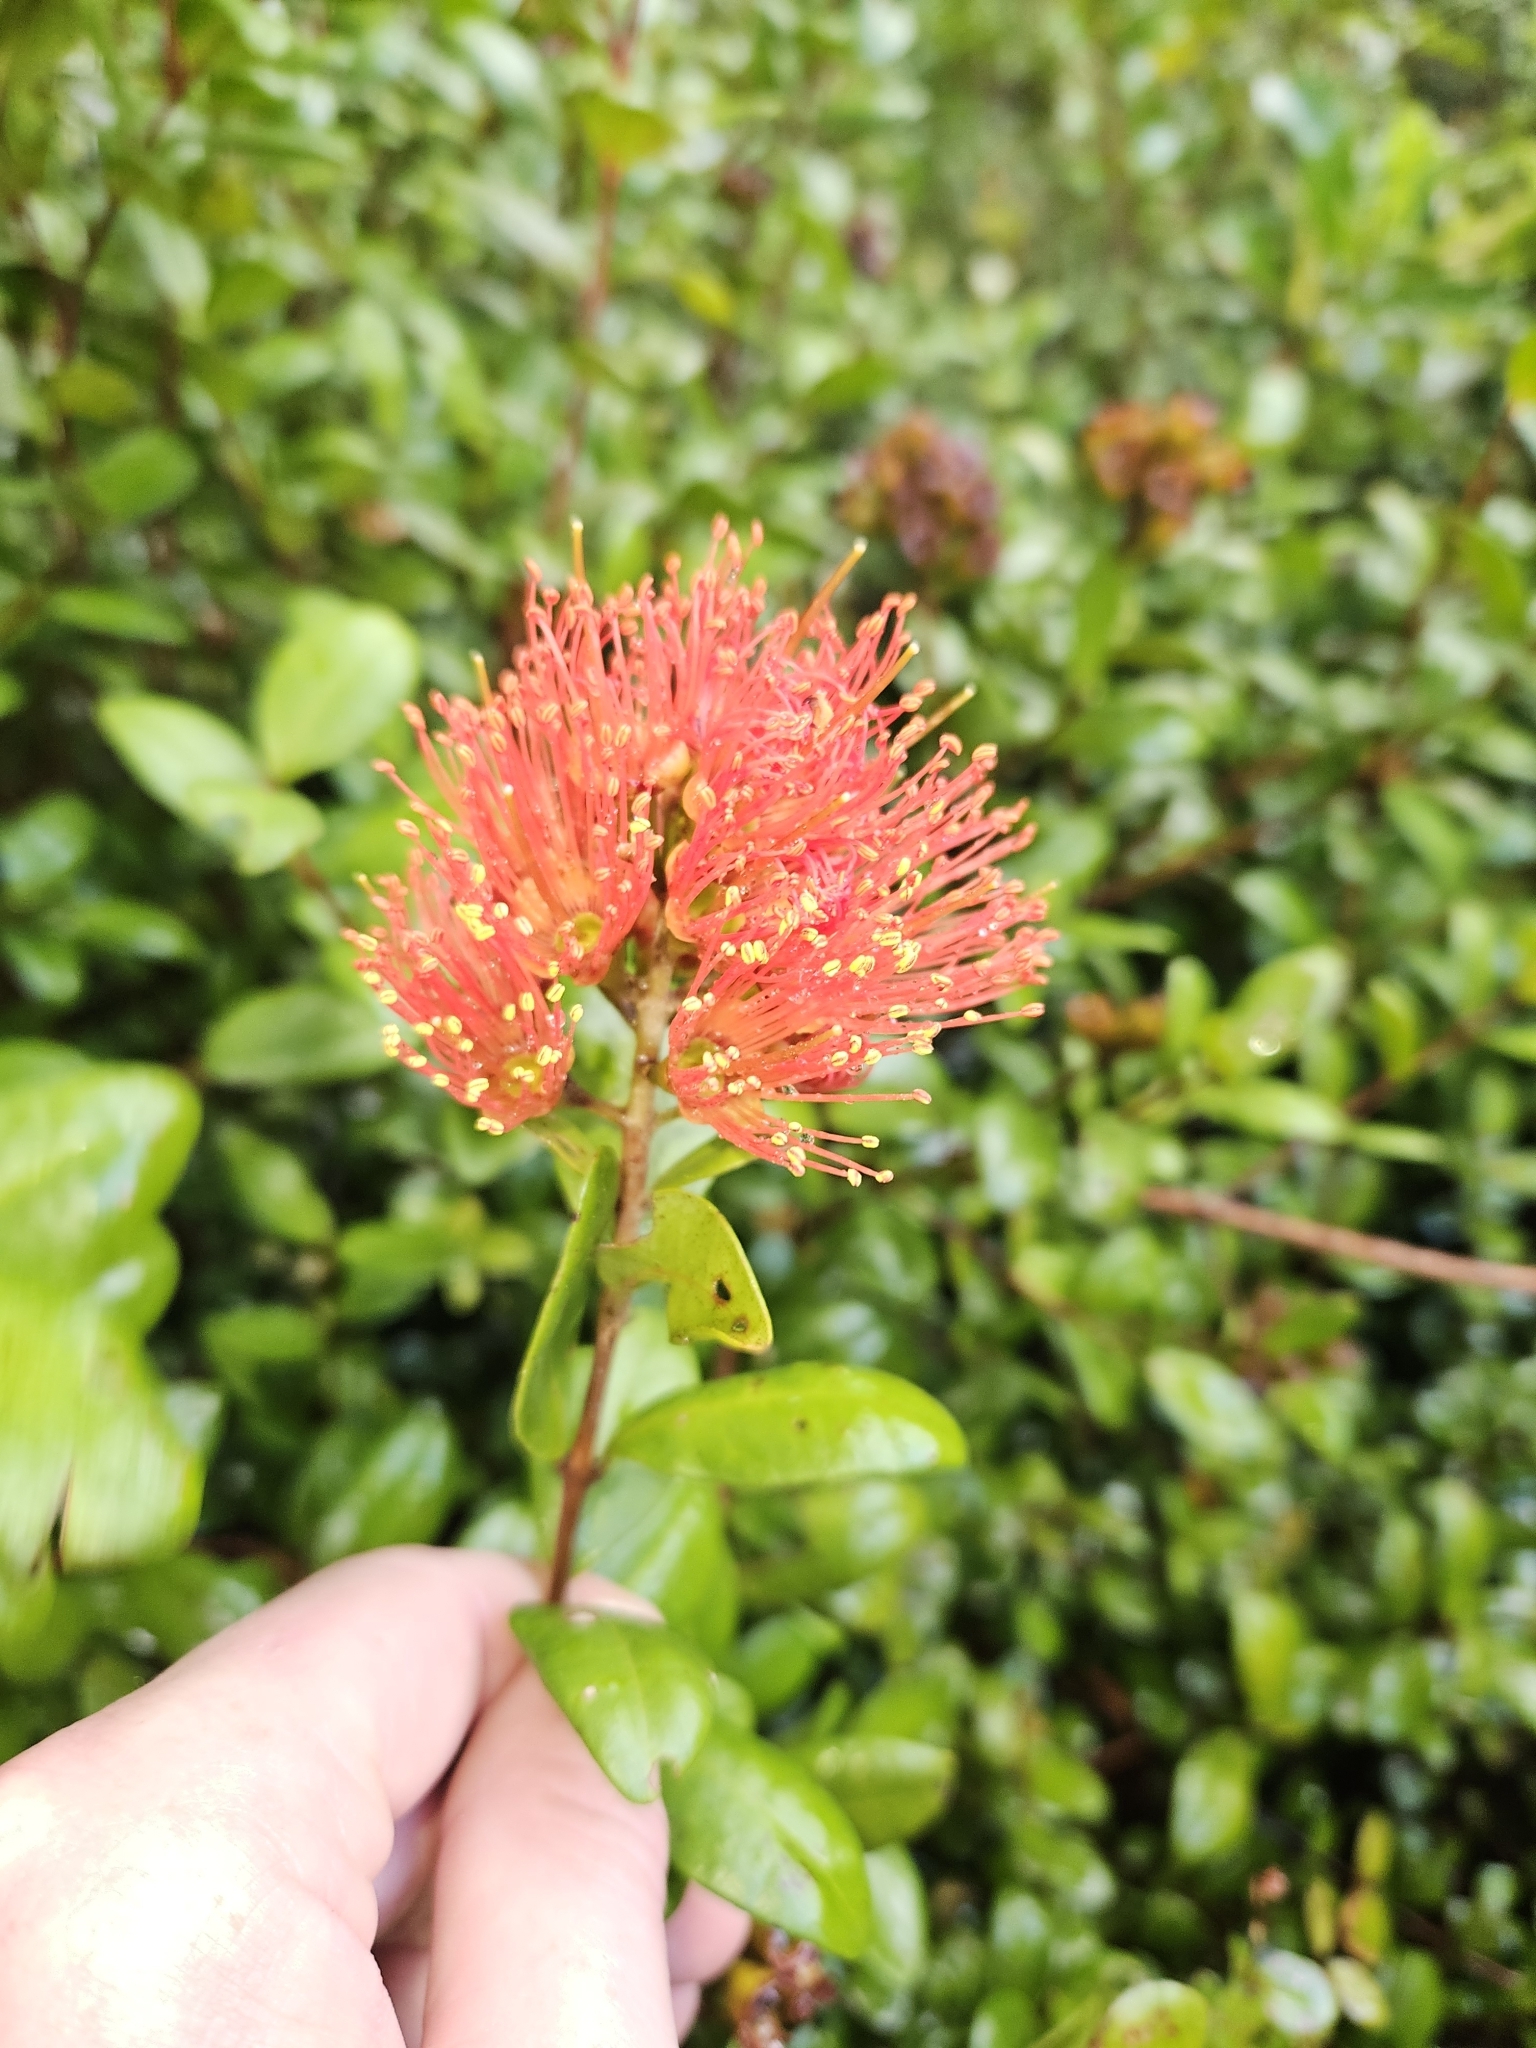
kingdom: Plantae
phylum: Tracheophyta
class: Magnoliopsida
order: Myrtales
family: Myrtaceae
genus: Metrosideros
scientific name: Metrosideros fulgens
